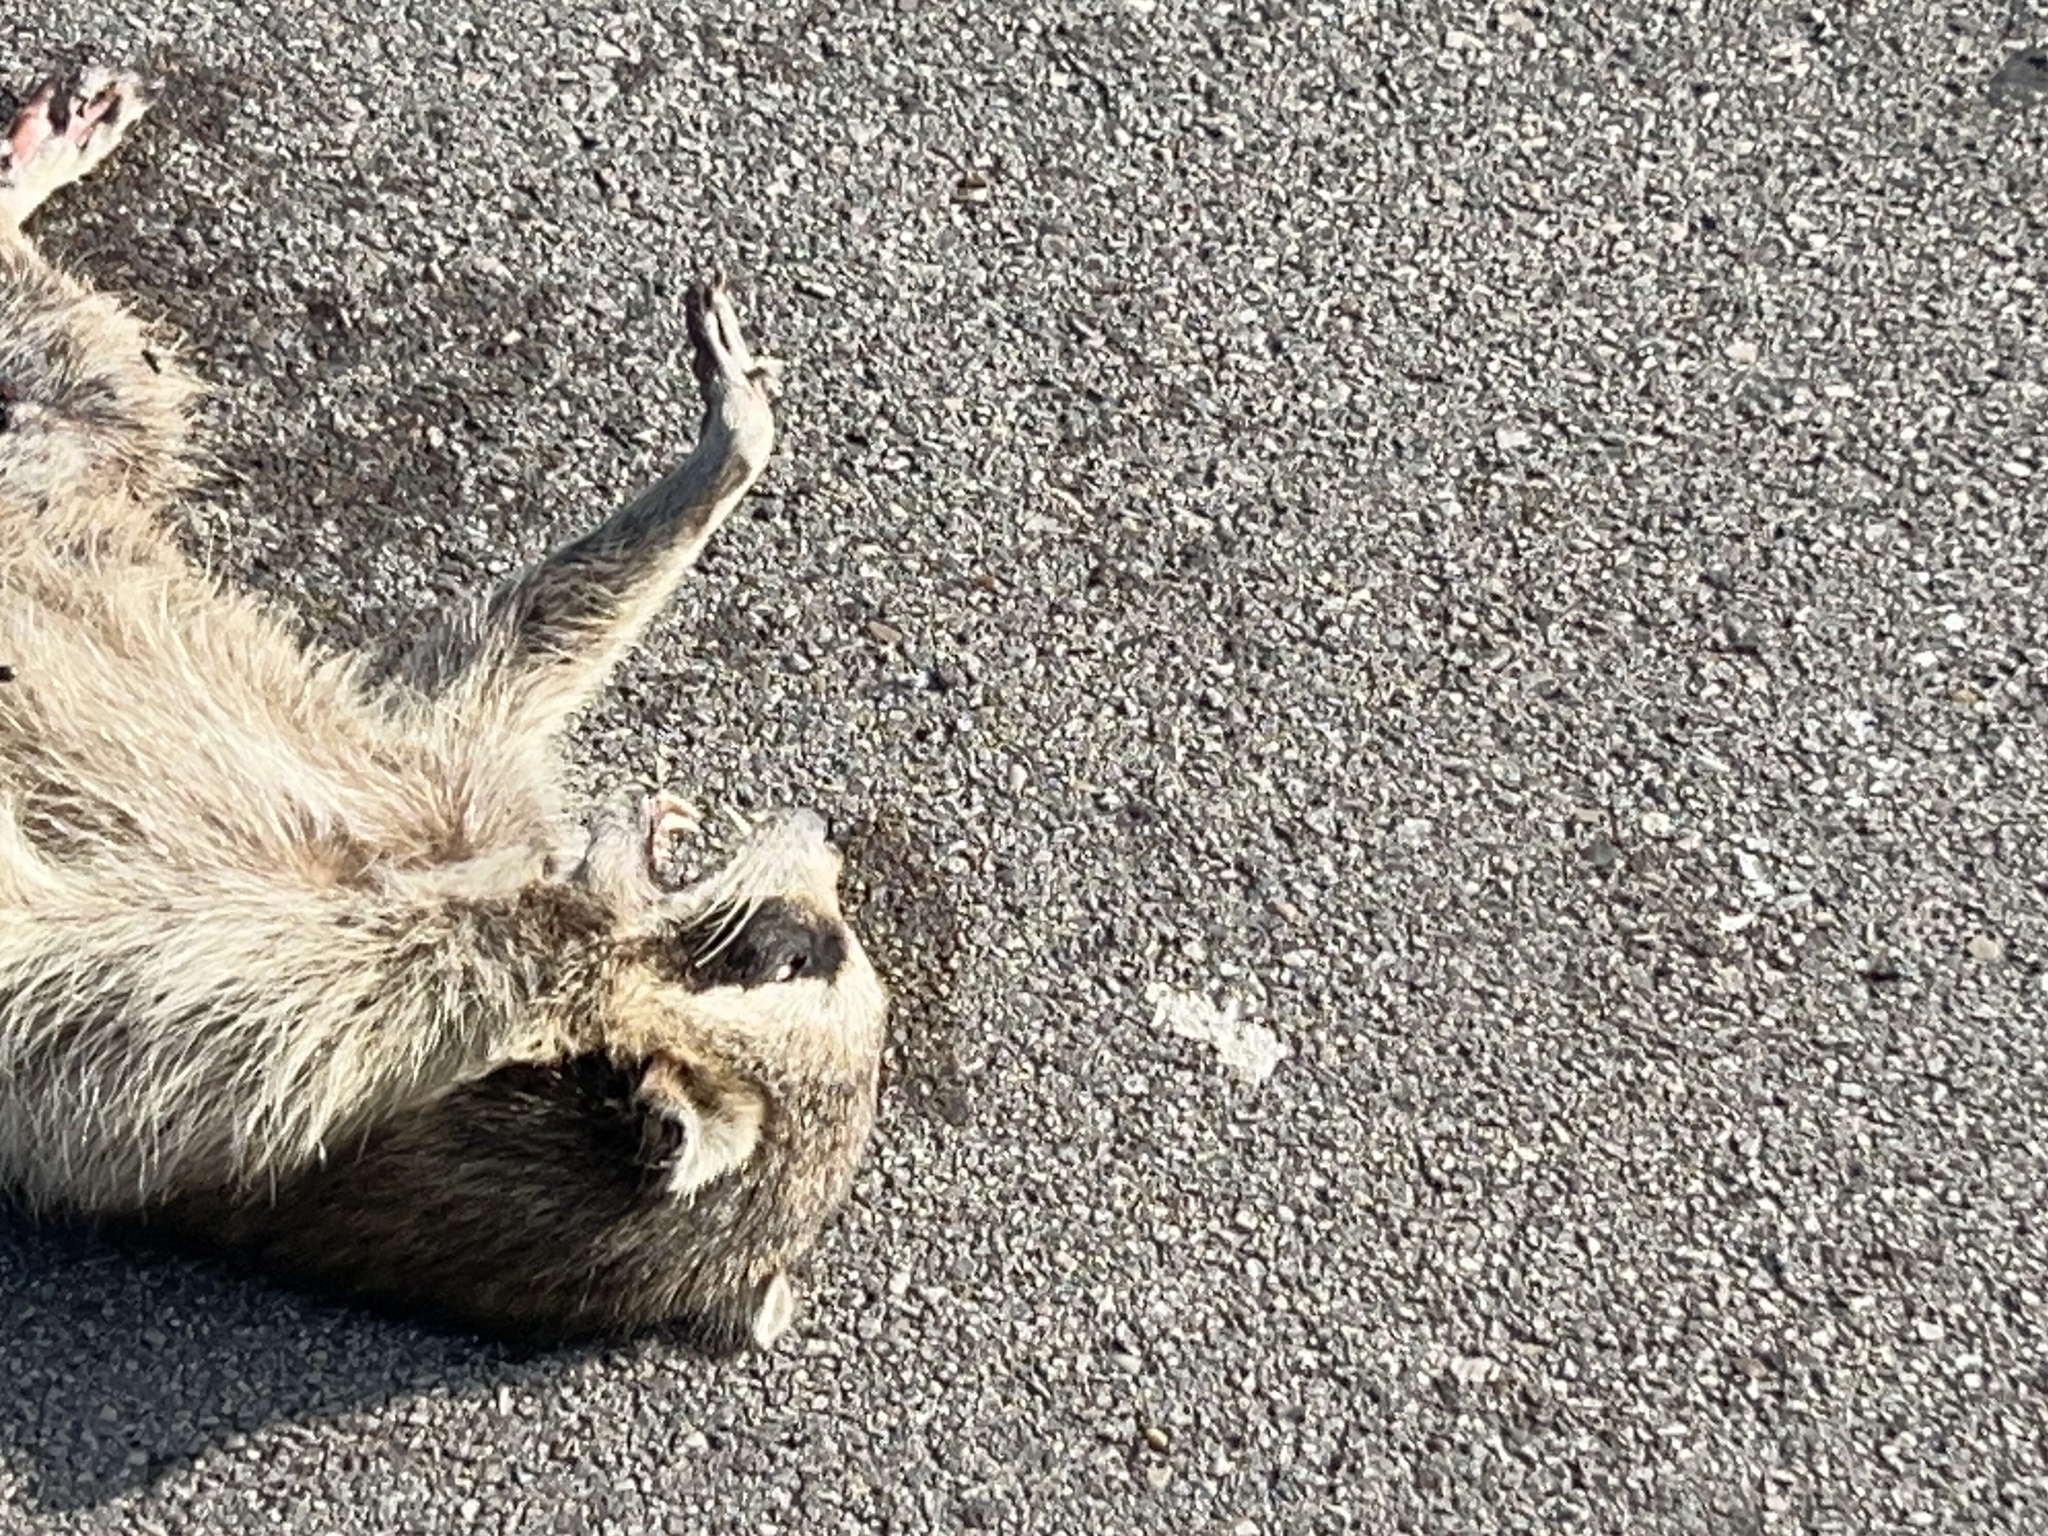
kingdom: Animalia
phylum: Chordata
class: Mammalia
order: Carnivora
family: Procyonidae
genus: Procyon
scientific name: Procyon lotor
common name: Raccoon
